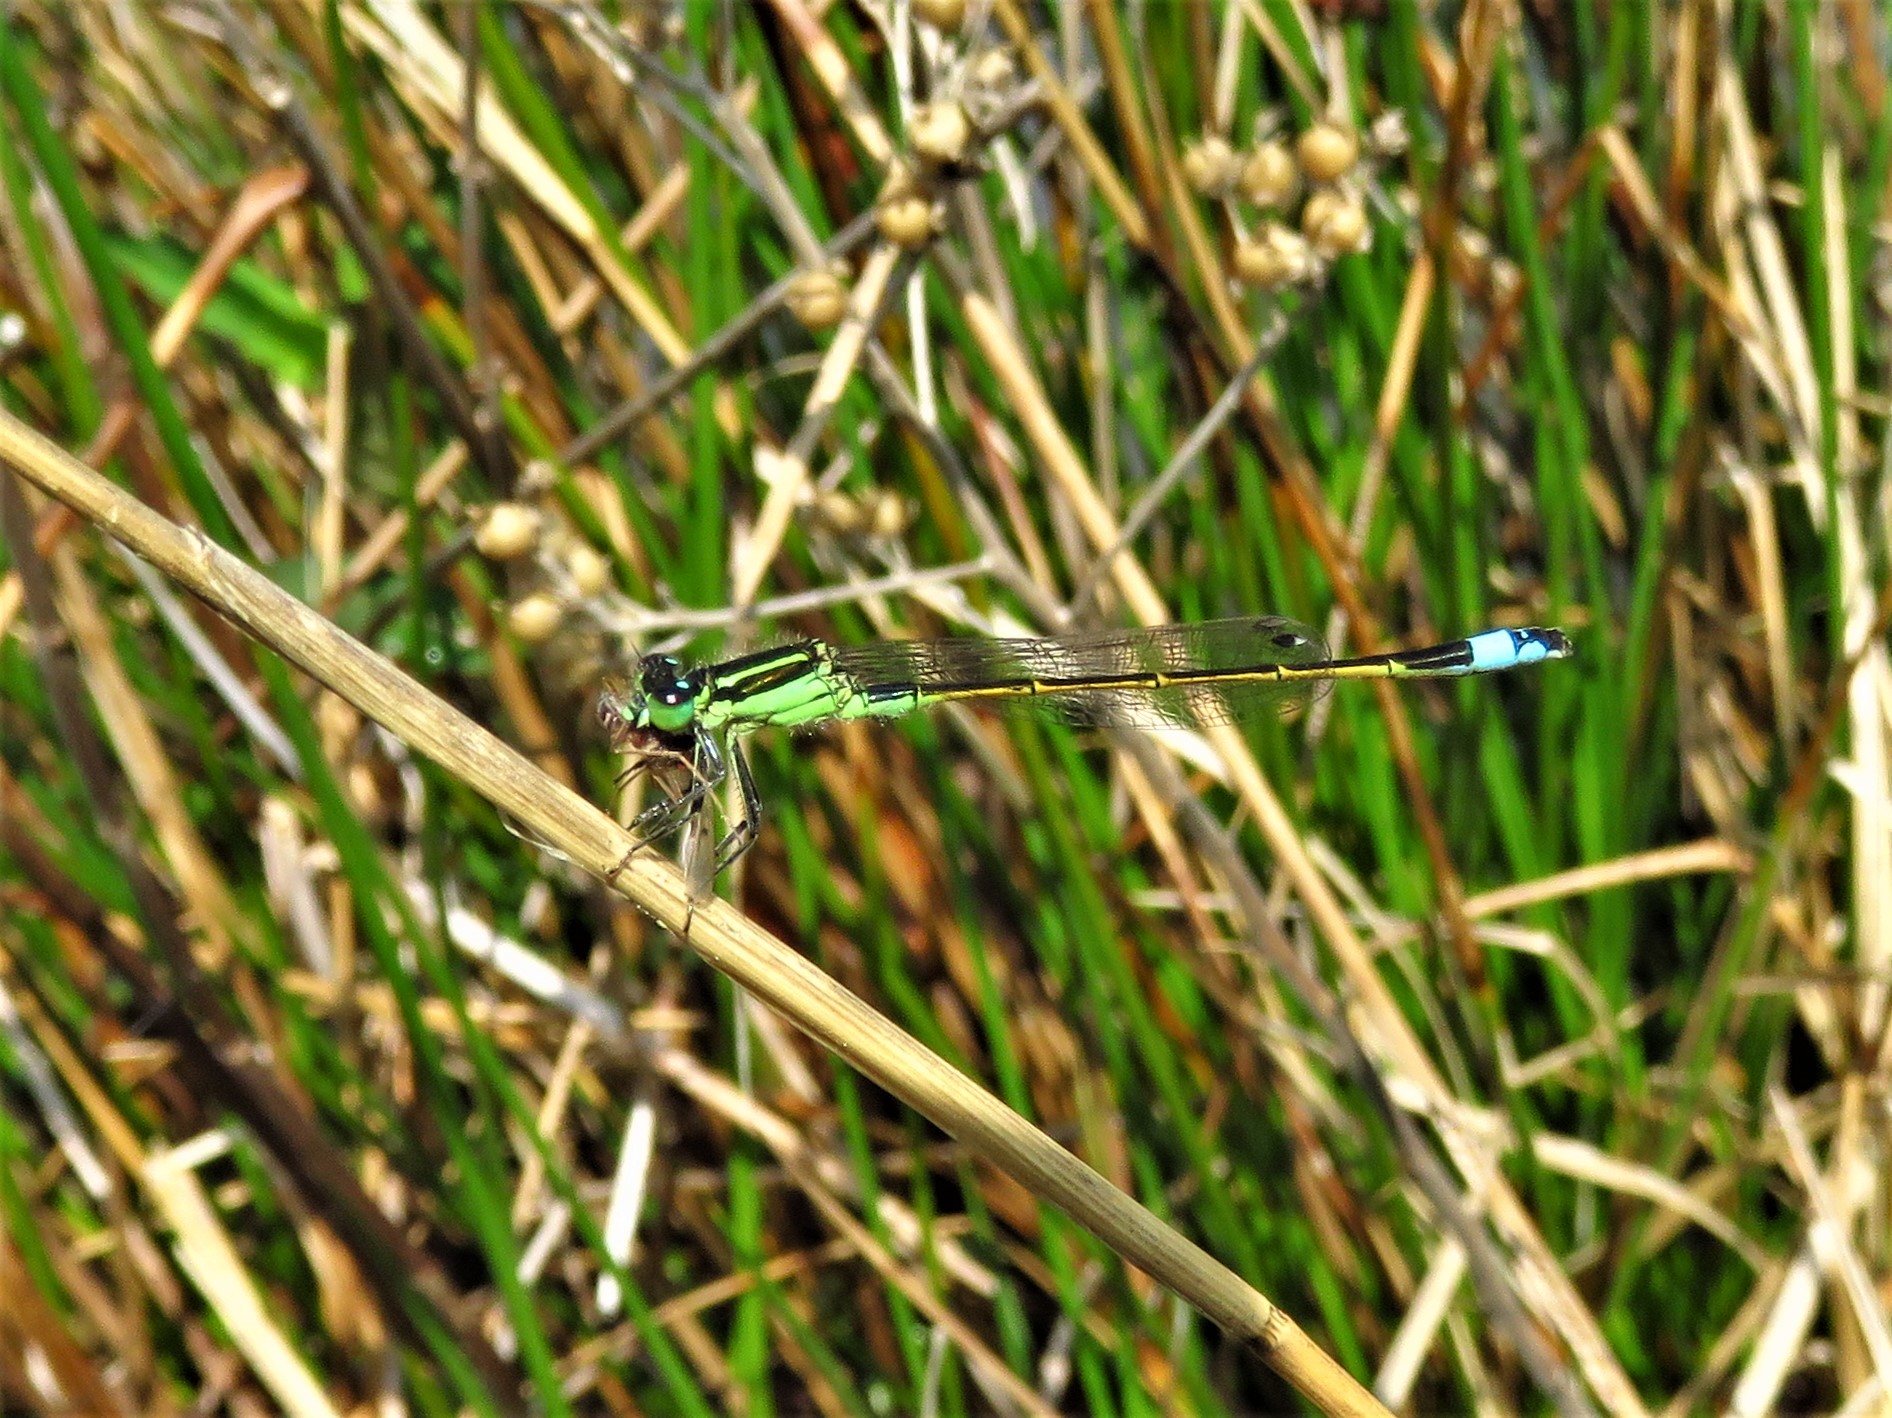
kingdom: Animalia
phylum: Arthropoda
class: Insecta
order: Odonata
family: Coenagrionidae
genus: Ischnura
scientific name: Ischnura ramburii
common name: Rambur's forktail
